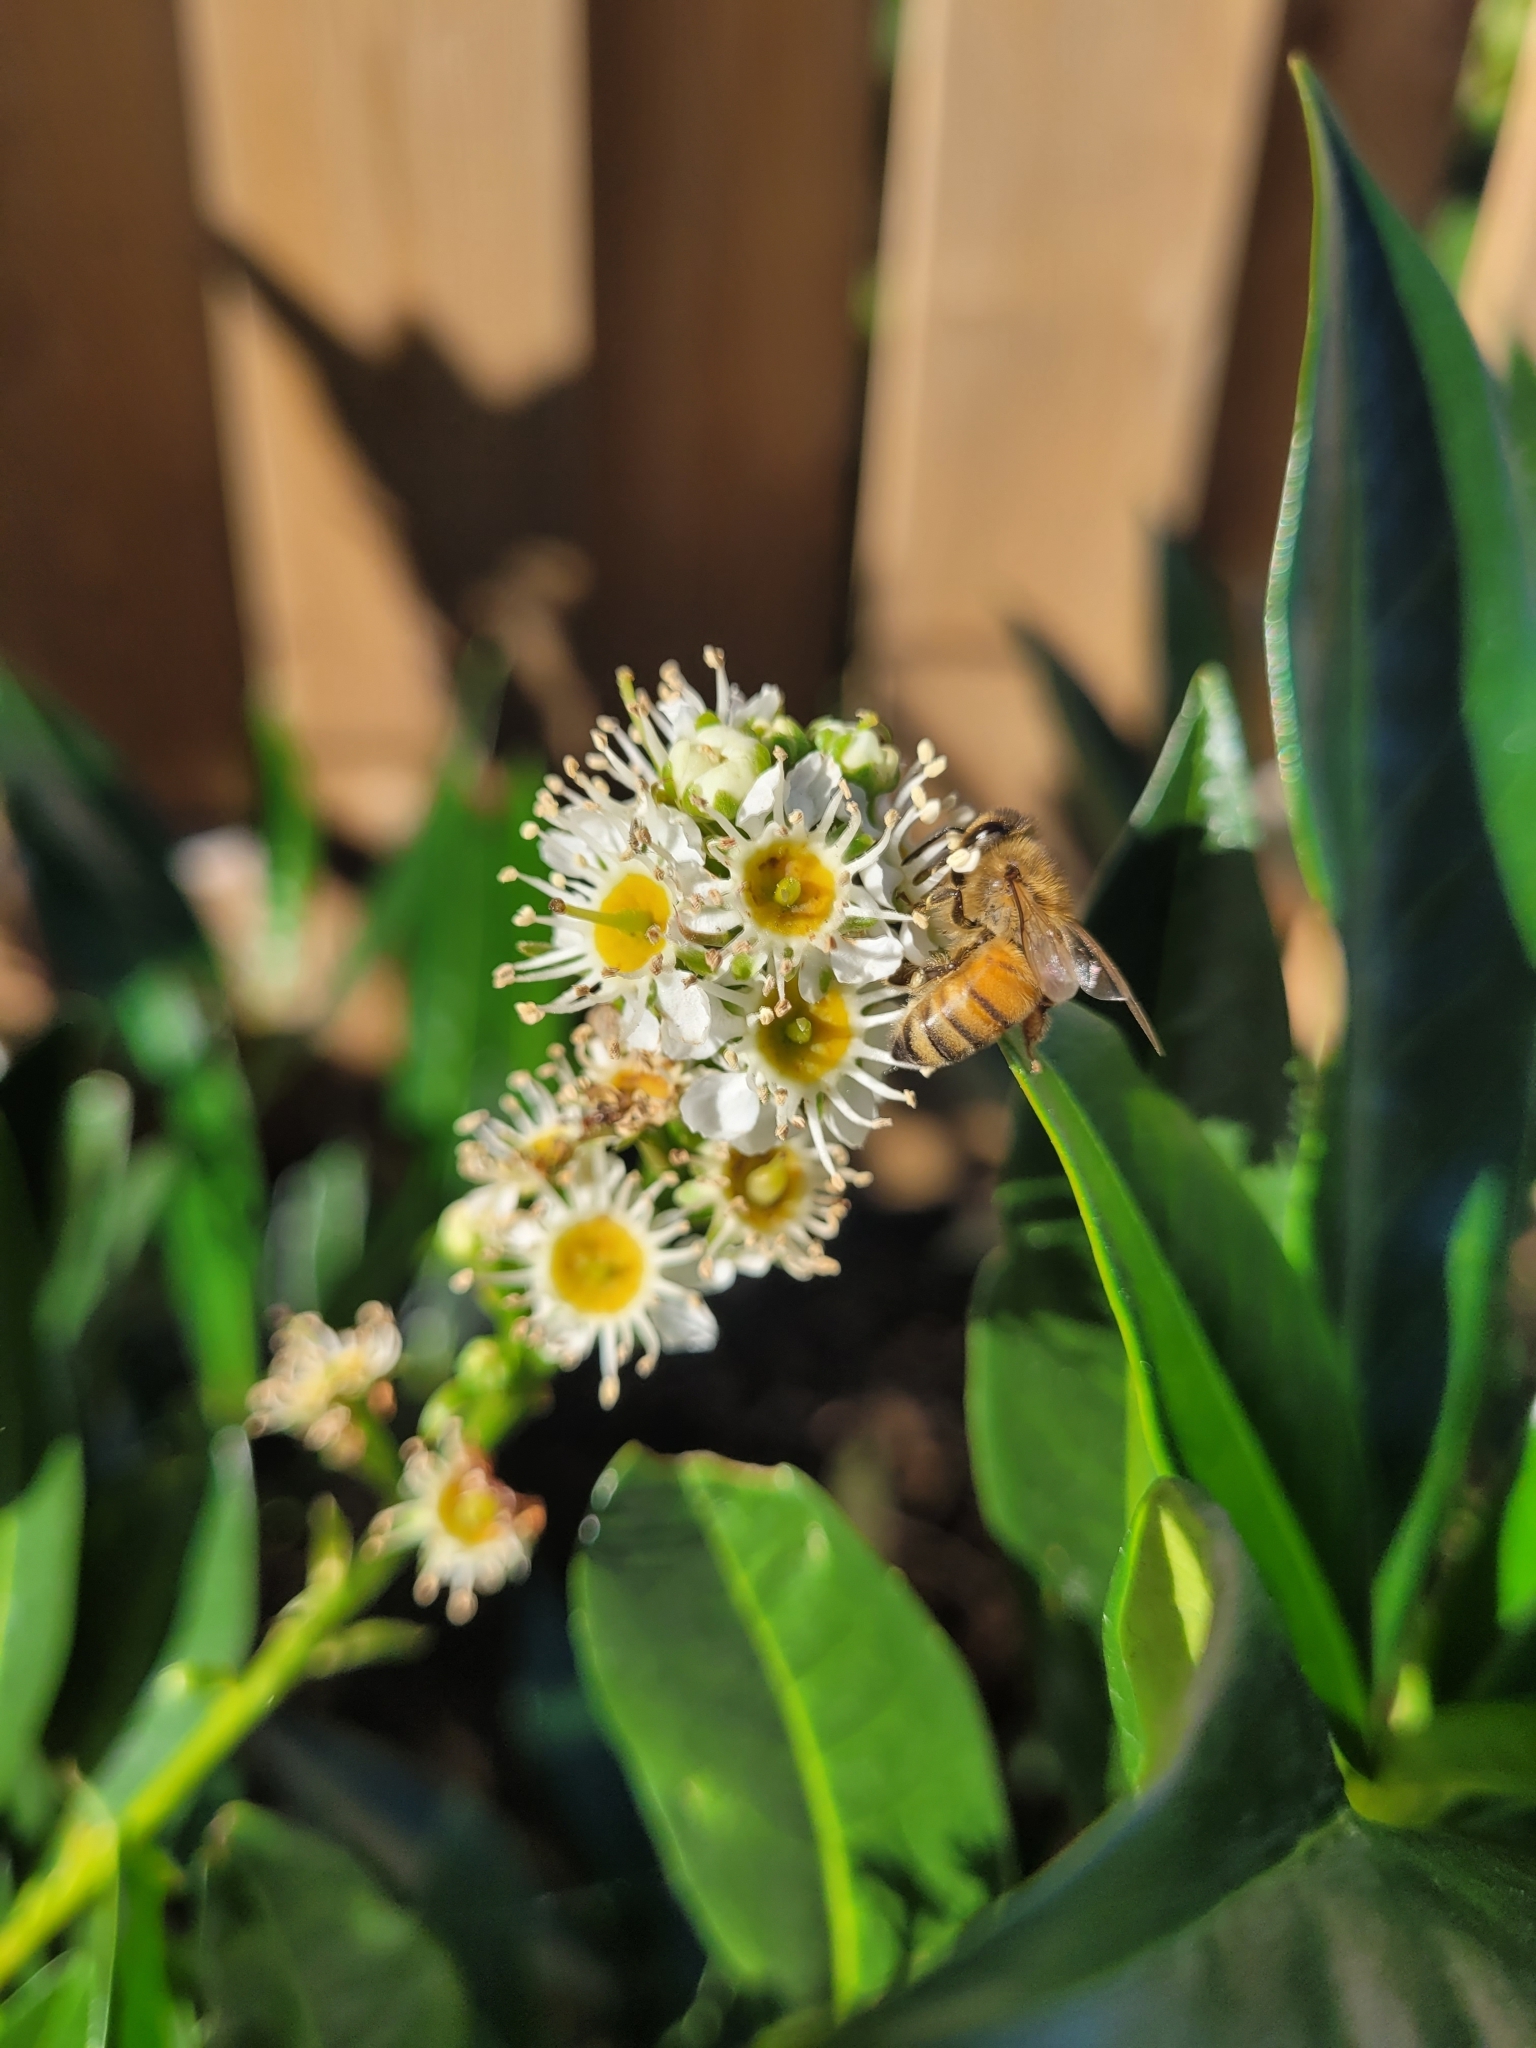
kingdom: Animalia
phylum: Arthropoda
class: Insecta
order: Hymenoptera
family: Apidae
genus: Apis
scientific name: Apis mellifera
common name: Honey bee
